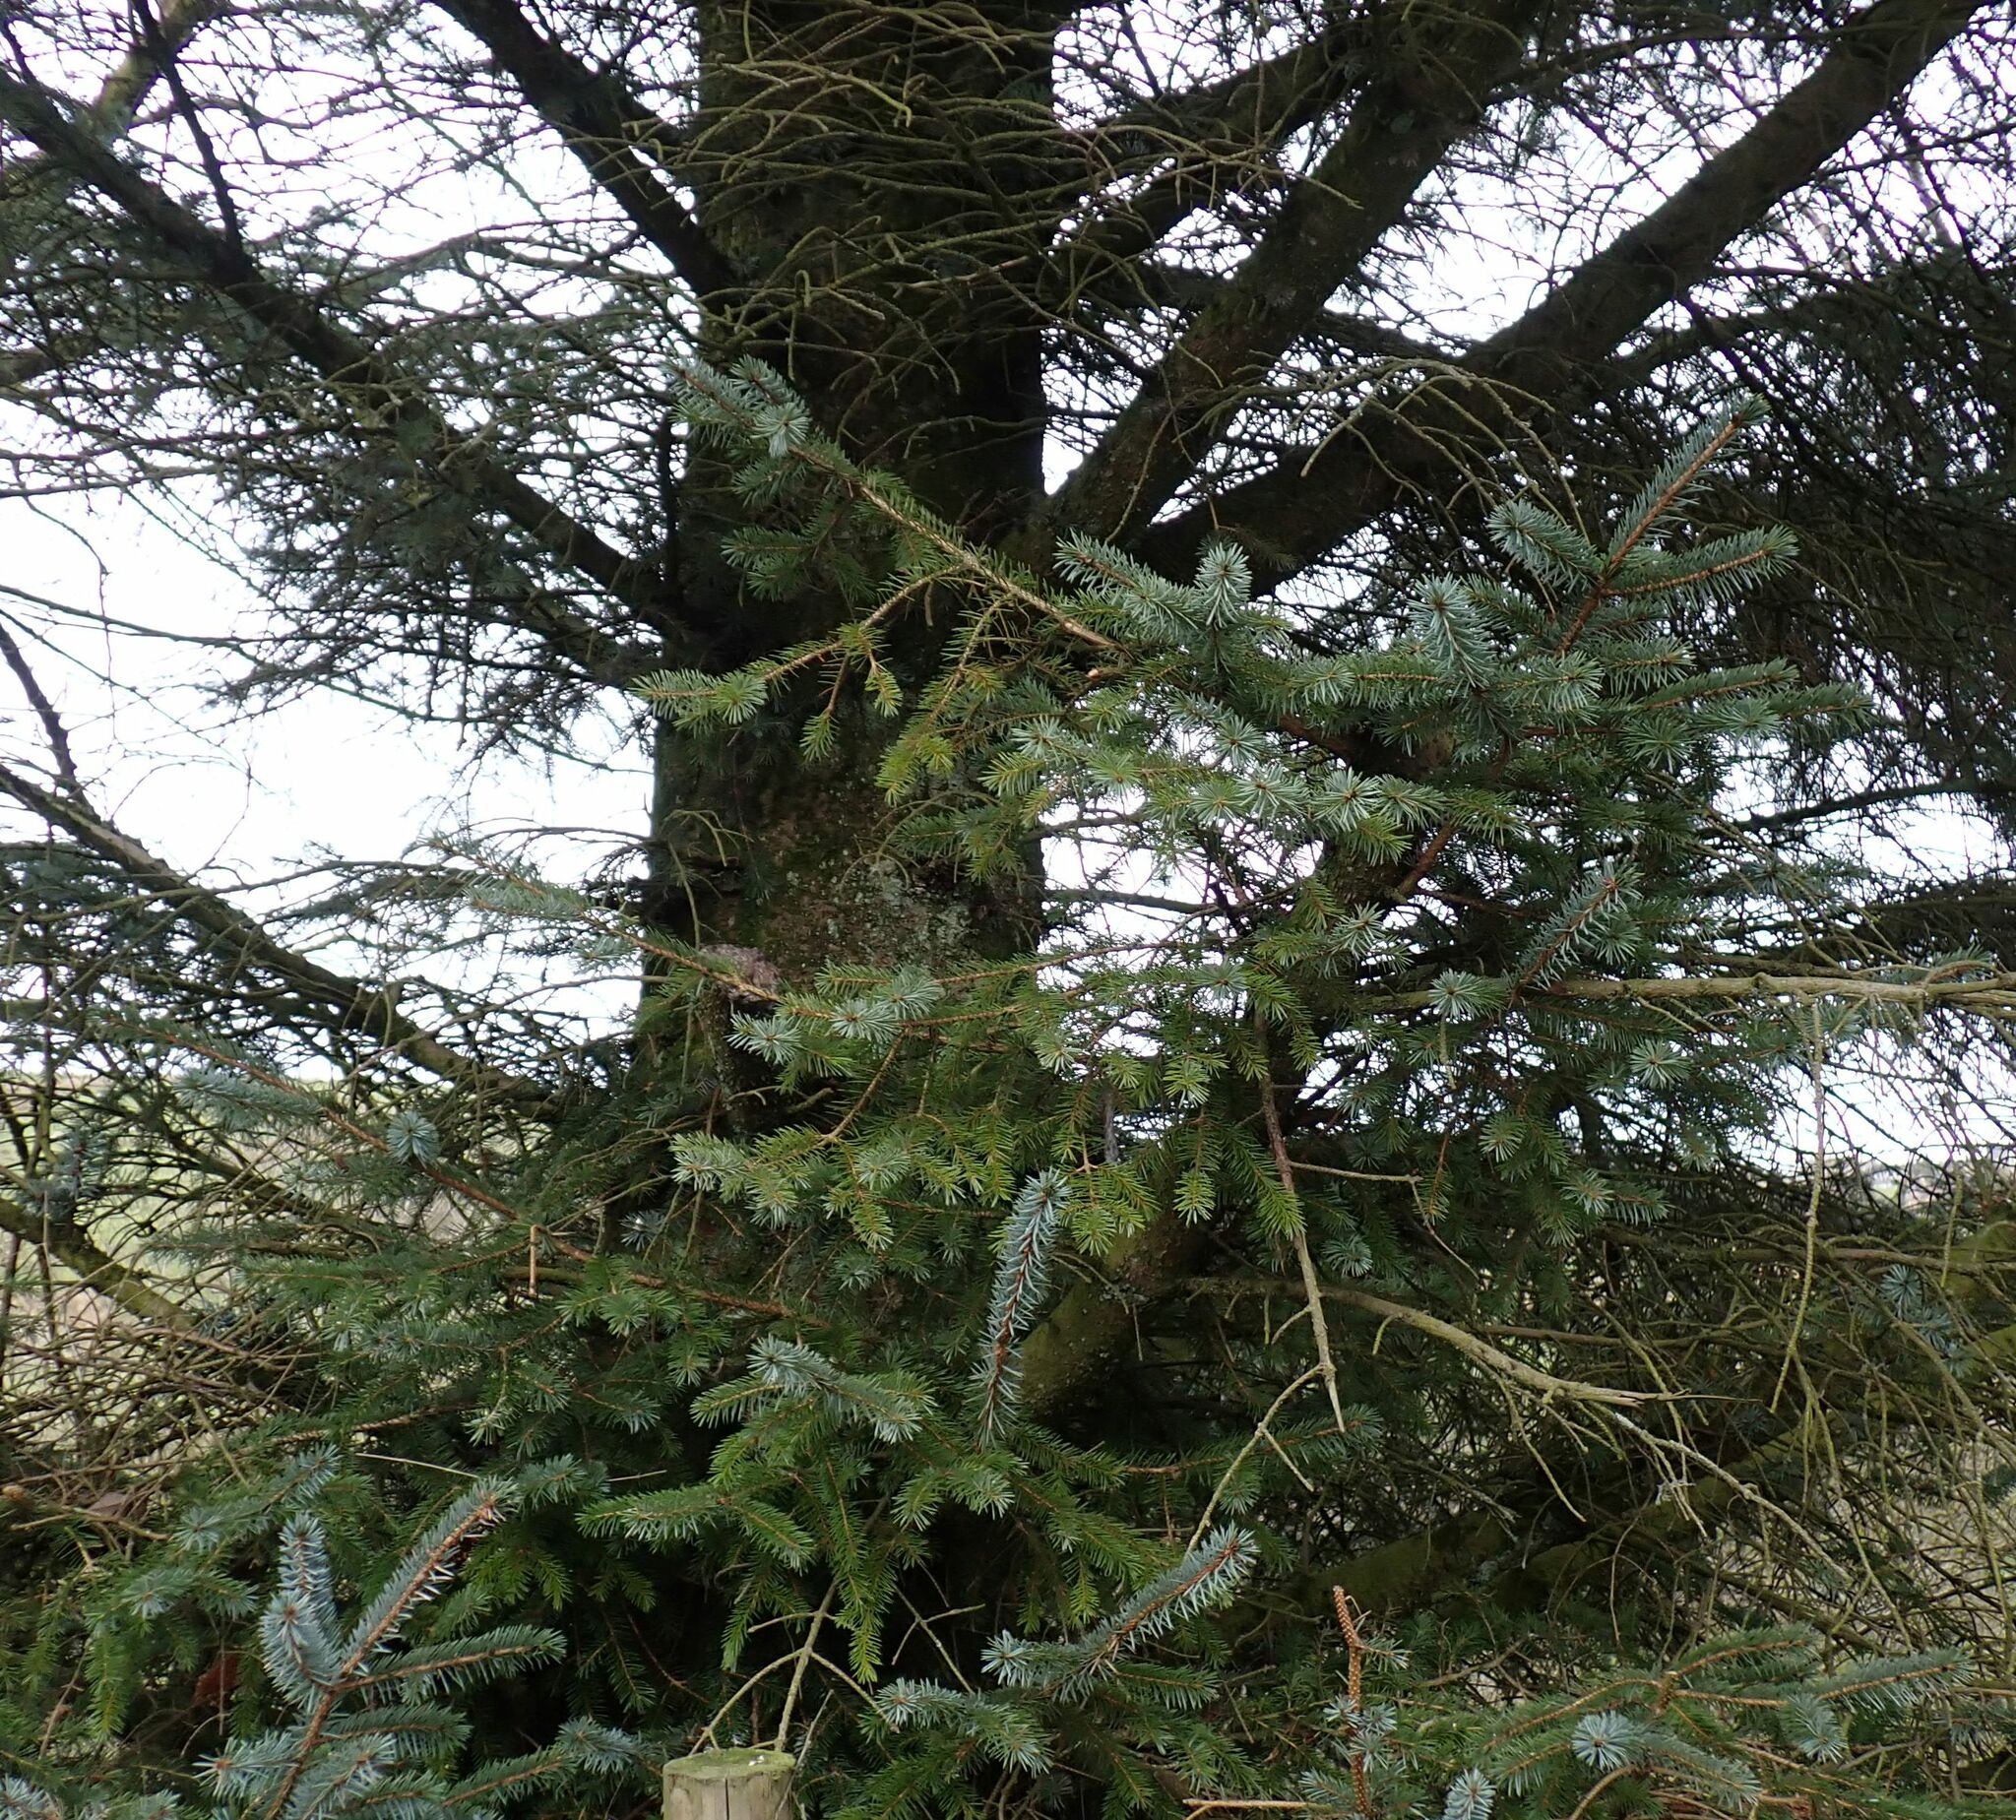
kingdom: Plantae
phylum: Tracheophyta
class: Pinopsida
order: Pinales
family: Pinaceae
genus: Picea
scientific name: Picea sitchensis
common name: Sitka spruce
